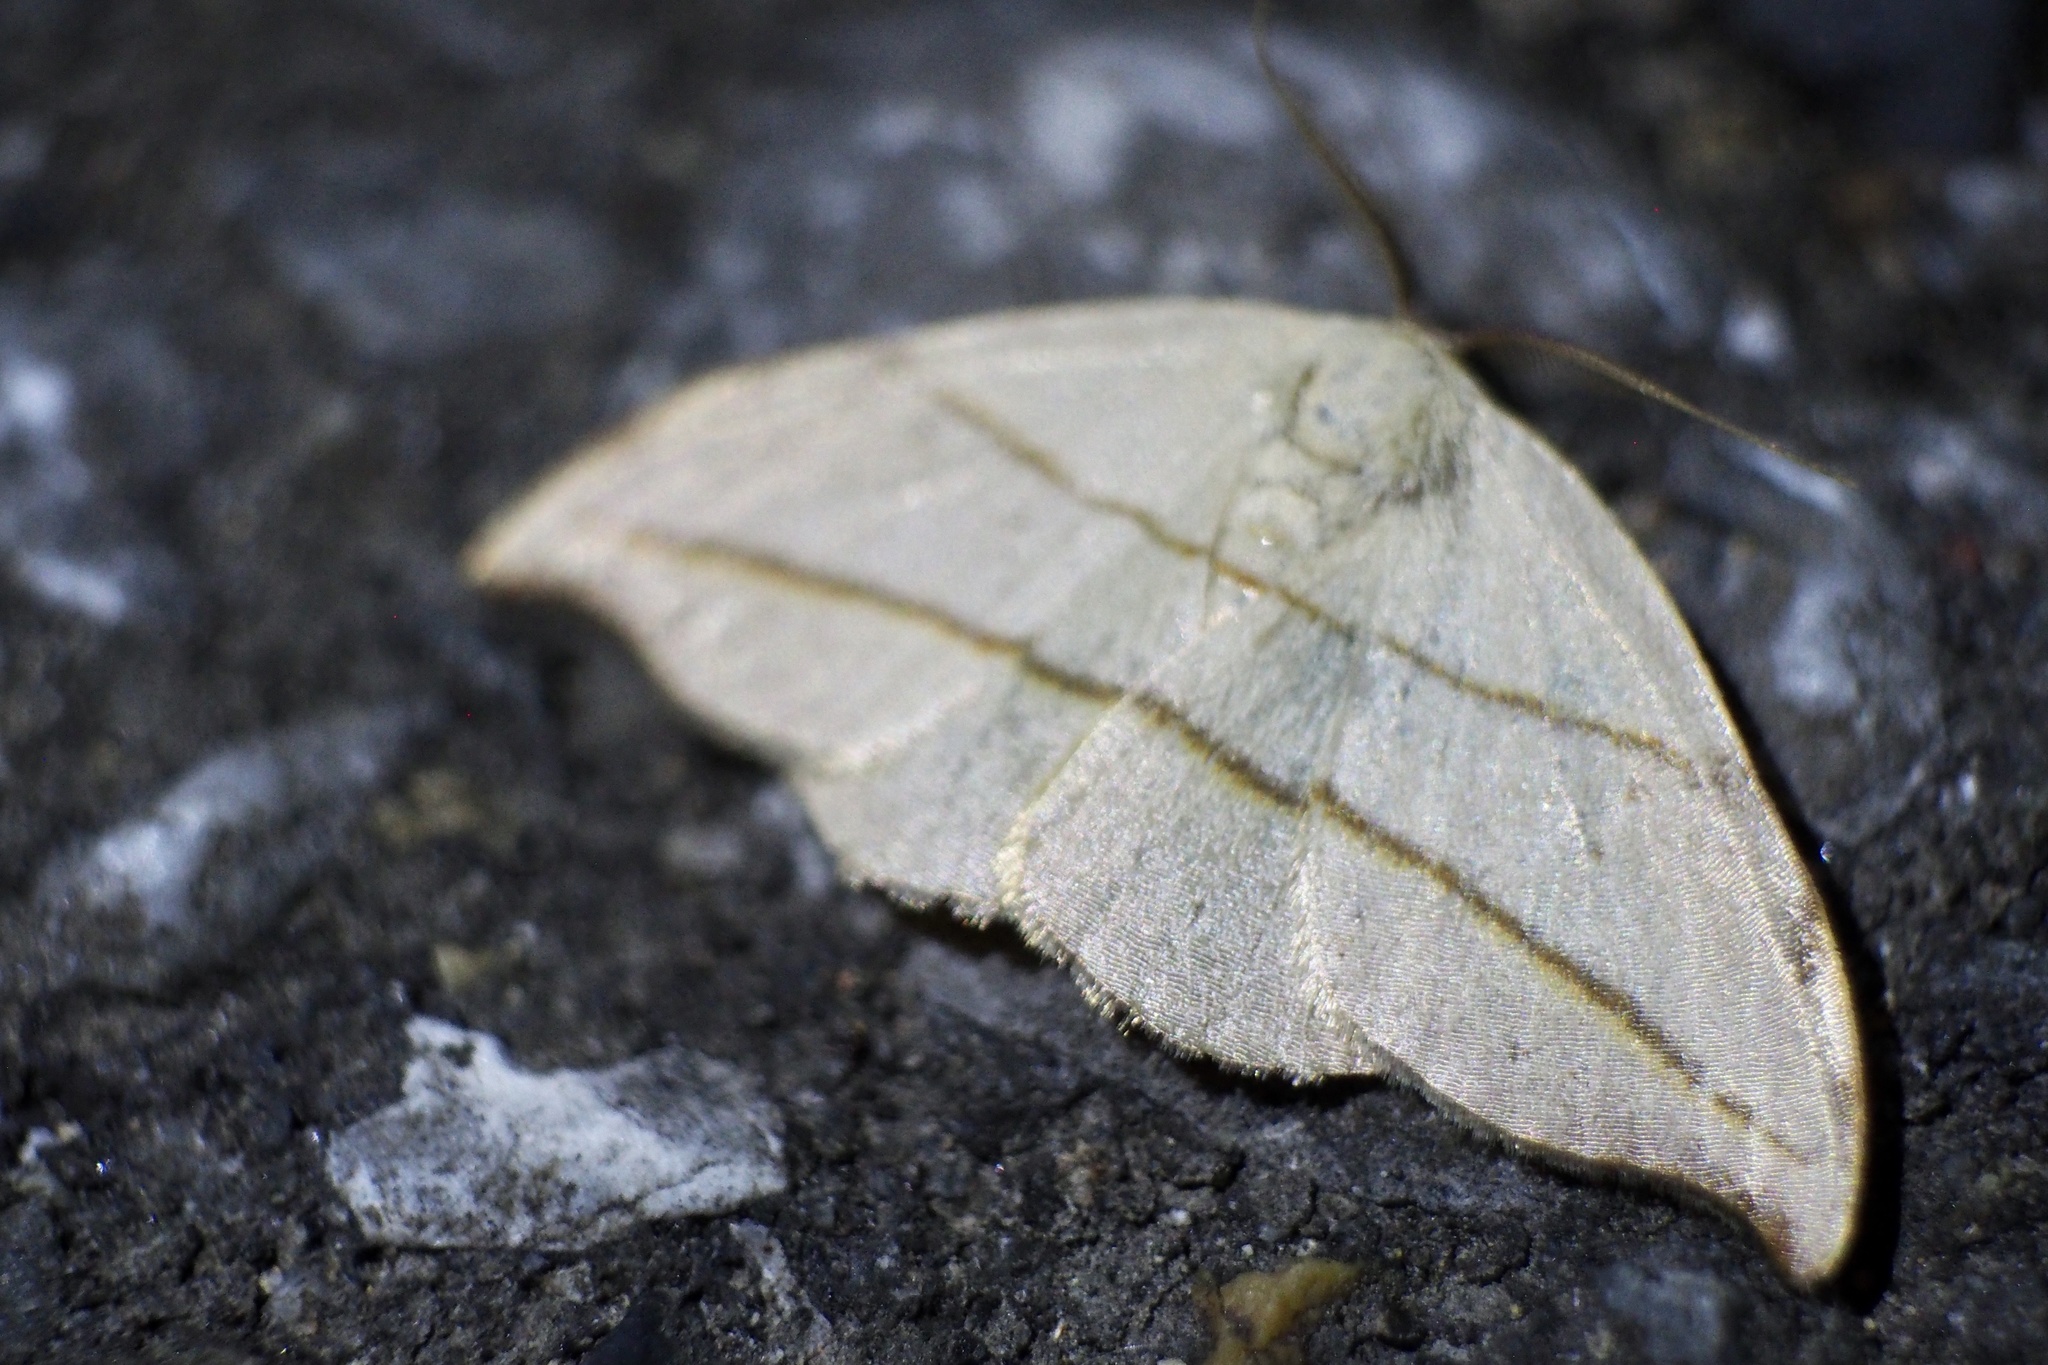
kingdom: Animalia
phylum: Arthropoda
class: Insecta
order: Lepidoptera
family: Drepanidae
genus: Nordstromia
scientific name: Nordstromia japonica
